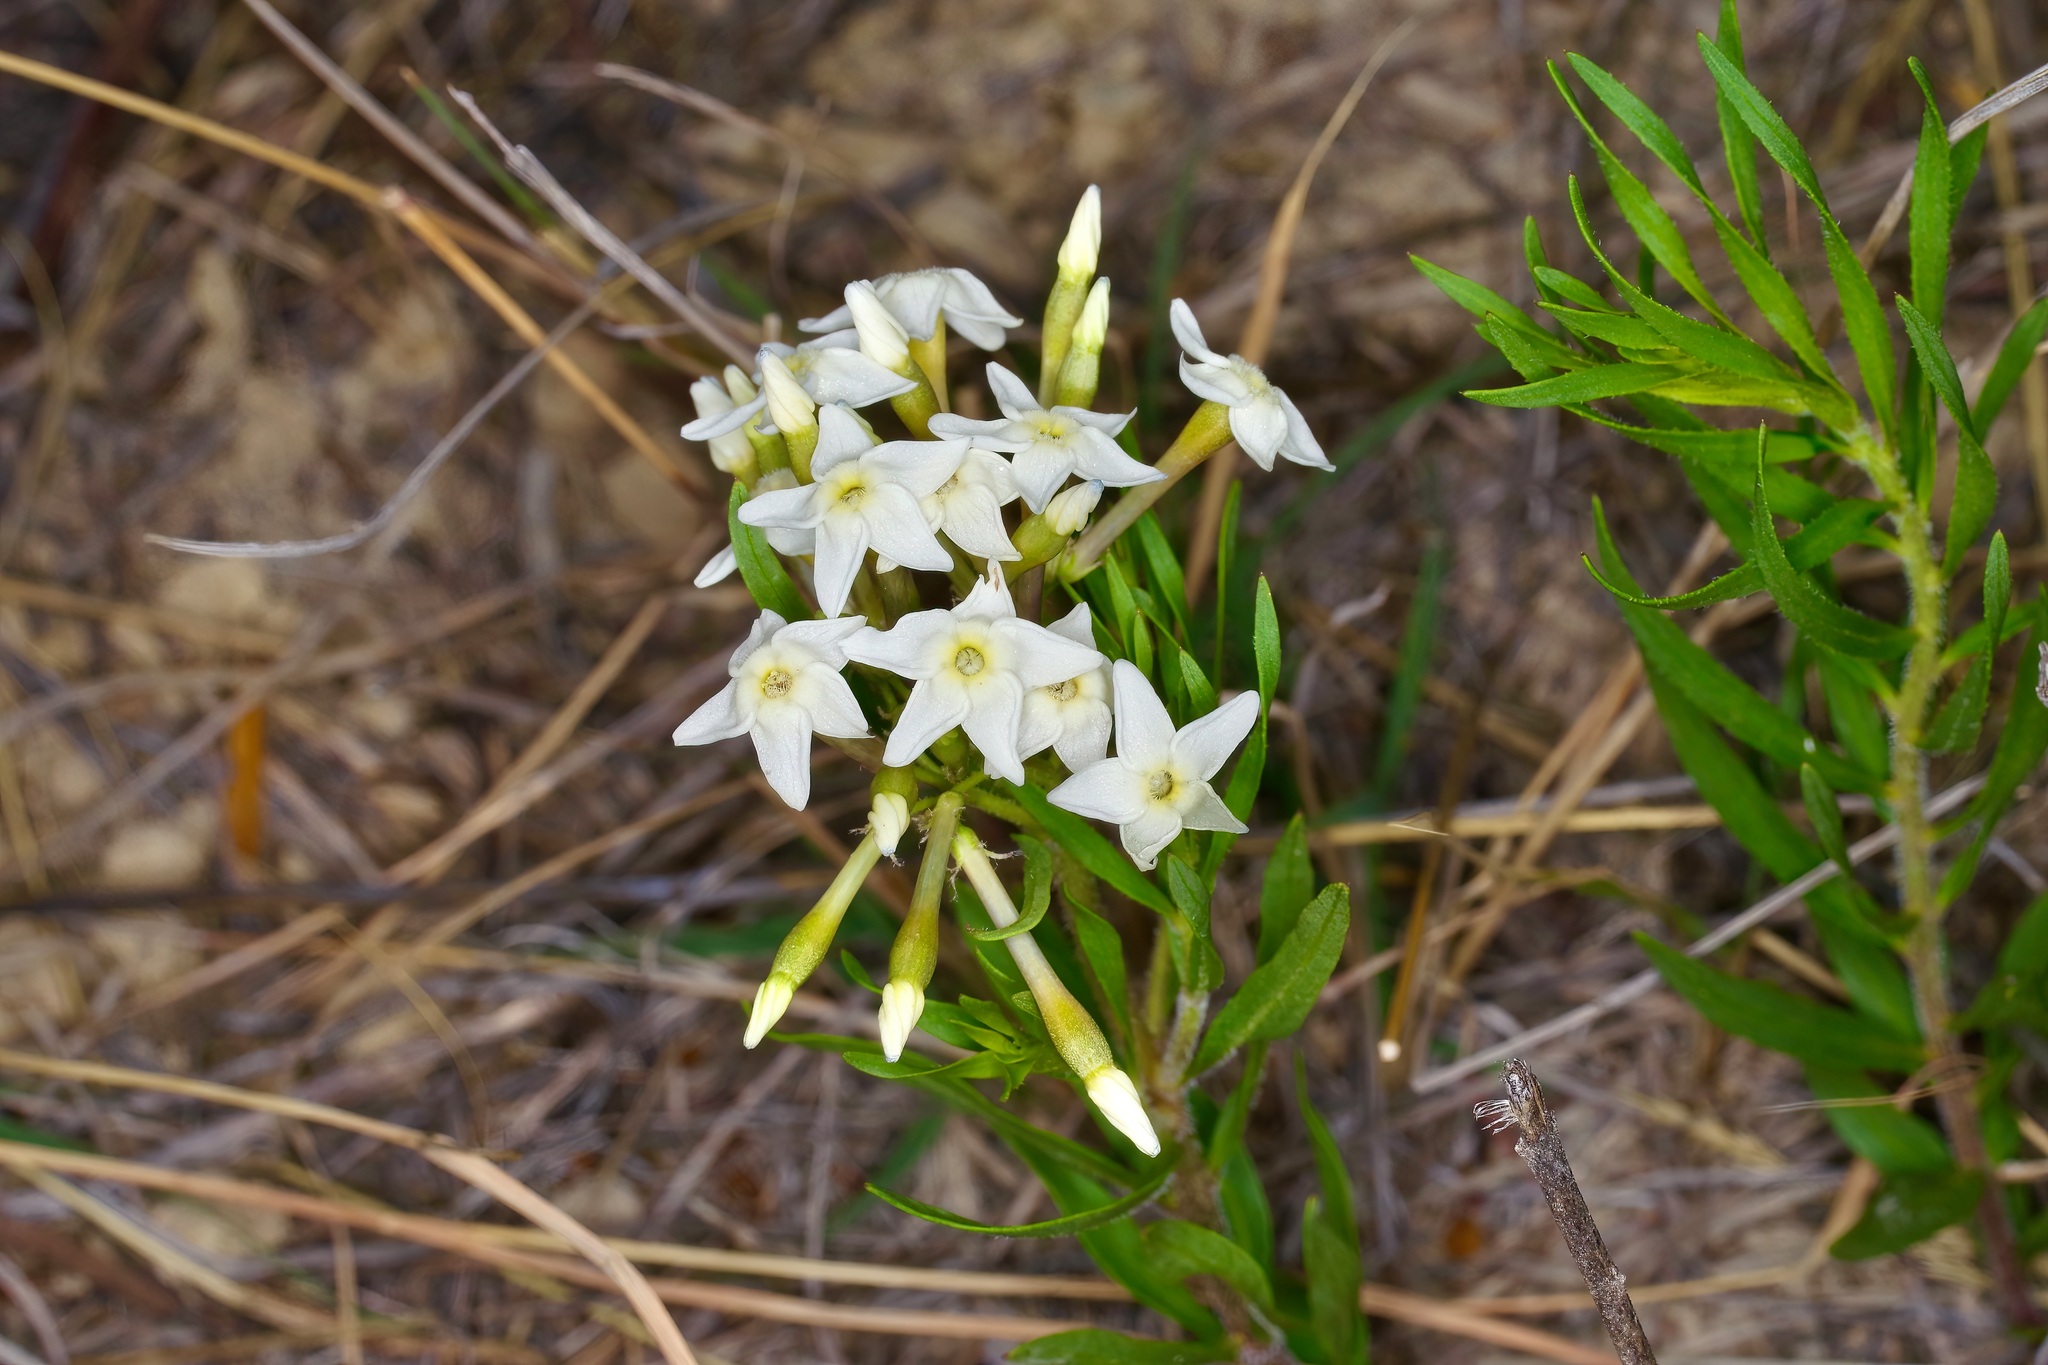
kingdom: Plantae
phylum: Tracheophyta
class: Magnoliopsida
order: Gentianales
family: Apocynaceae
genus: Amsonia
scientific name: Amsonia tharpii
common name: Feltleaf bluestar
